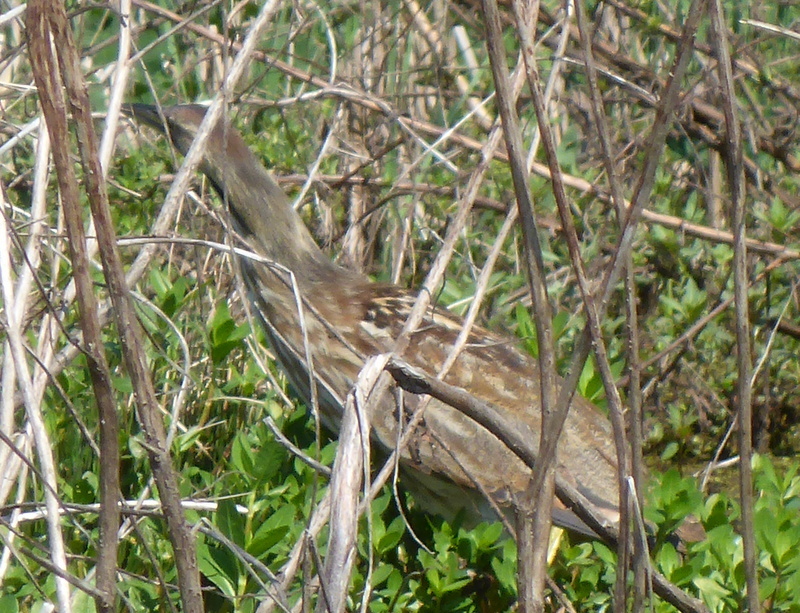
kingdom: Animalia
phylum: Chordata
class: Aves
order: Pelecaniformes
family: Ardeidae
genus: Botaurus
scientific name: Botaurus lentiginosus
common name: American bittern
